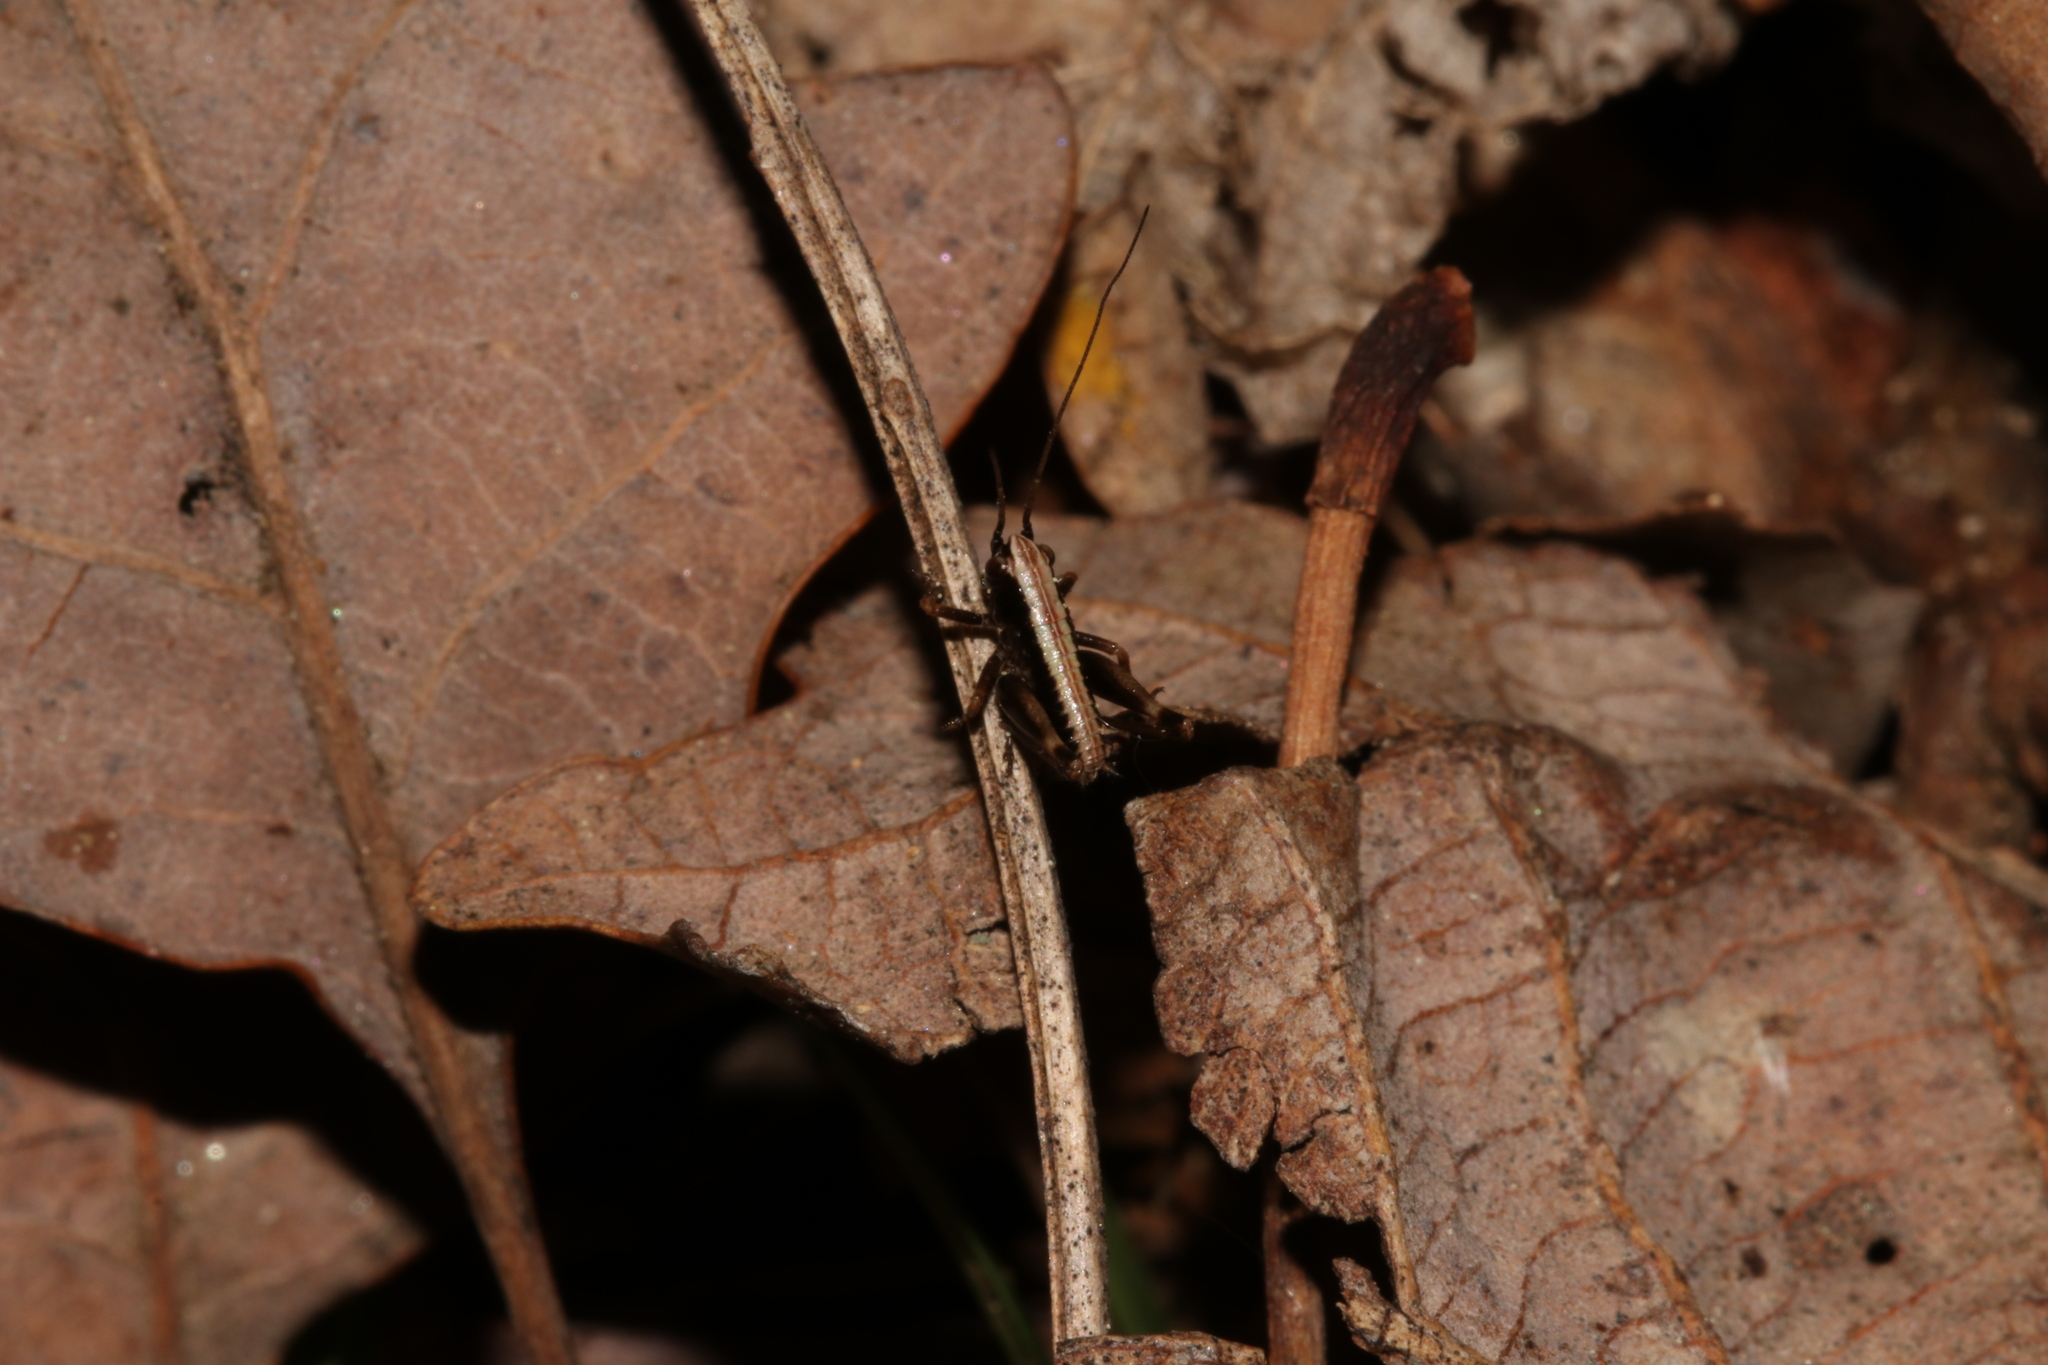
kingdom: Animalia
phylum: Arthropoda
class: Insecta
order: Orthoptera
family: Tettigoniidae
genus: Pholidoptera
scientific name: Pholidoptera griseoaptera
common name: Dark bush-cricket
